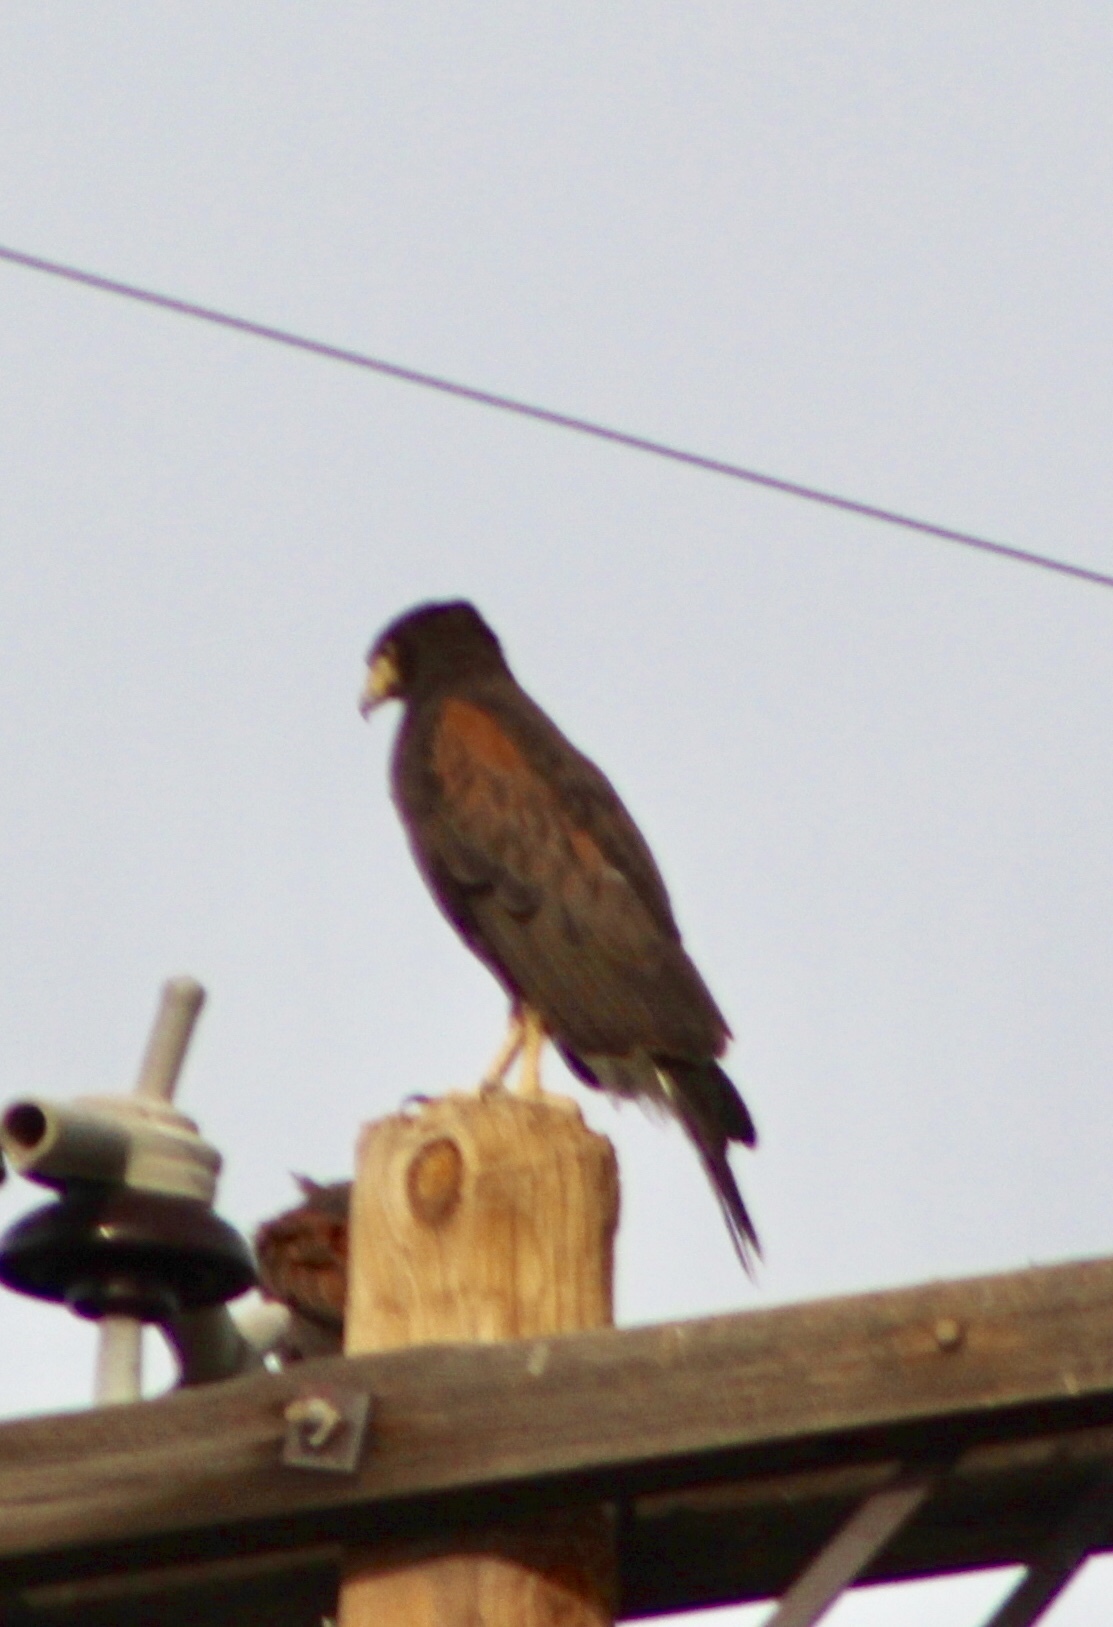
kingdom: Animalia
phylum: Chordata
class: Aves
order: Accipitriformes
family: Accipitridae
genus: Parabuteo
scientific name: Parabuteo unicinctus
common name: Harris's hawk
